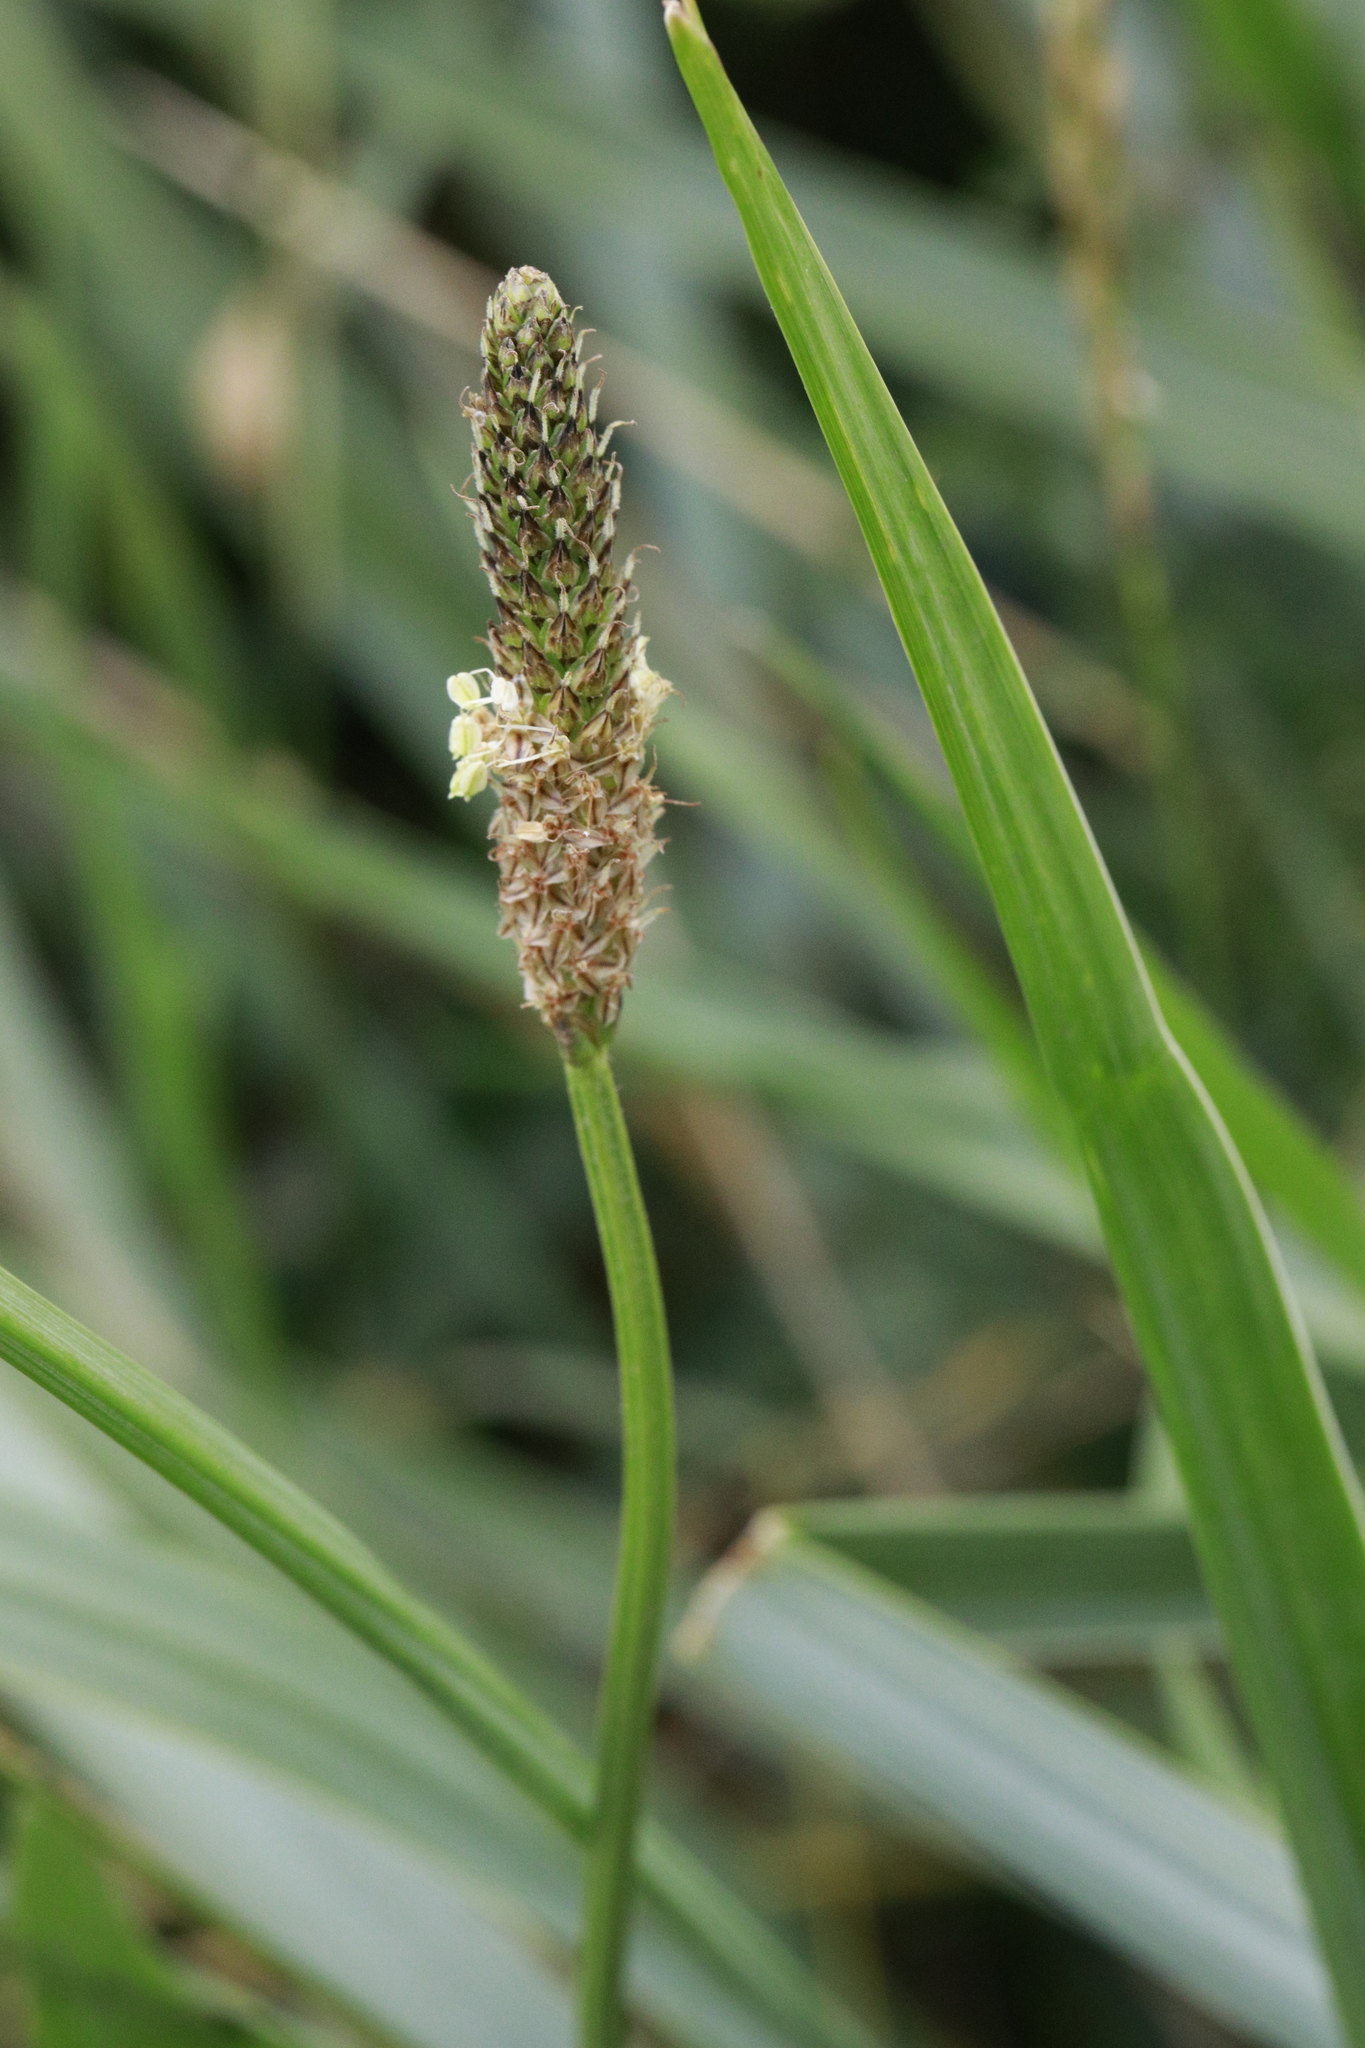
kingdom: Plantae
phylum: Tracheophyta
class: Magnoliopsida
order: Lamiales
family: Plantaginaceae
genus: Plantago
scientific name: Plantago lanceolata
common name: Ribwort plantain
